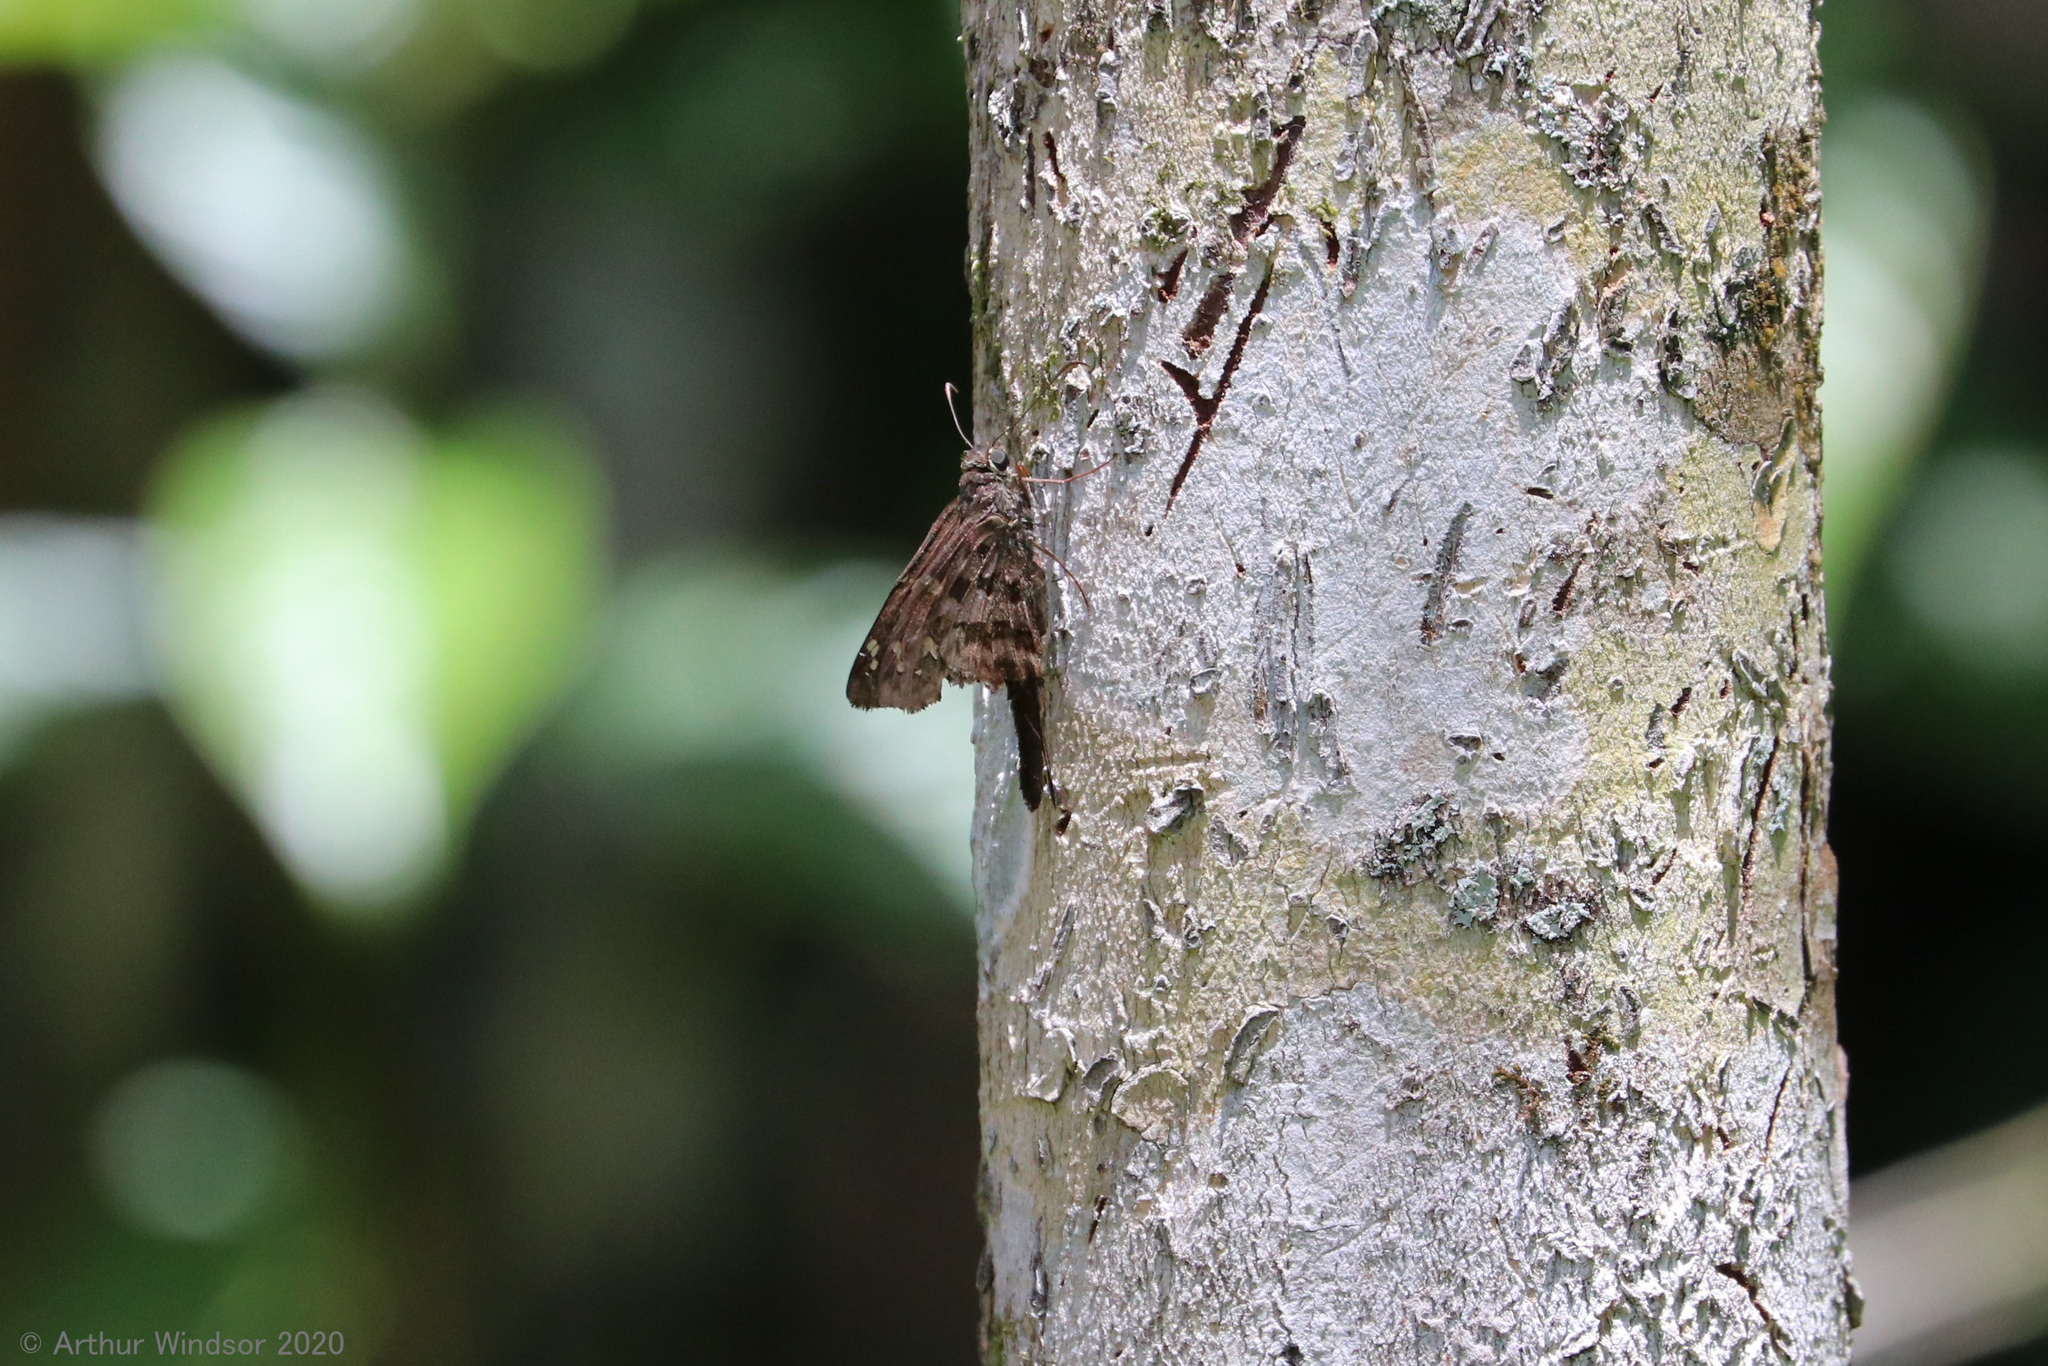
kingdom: Animalia
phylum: Arthropoda
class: Insecta
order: Lepidoptera
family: Hesperiidae
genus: Thorybes
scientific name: Thorybes
